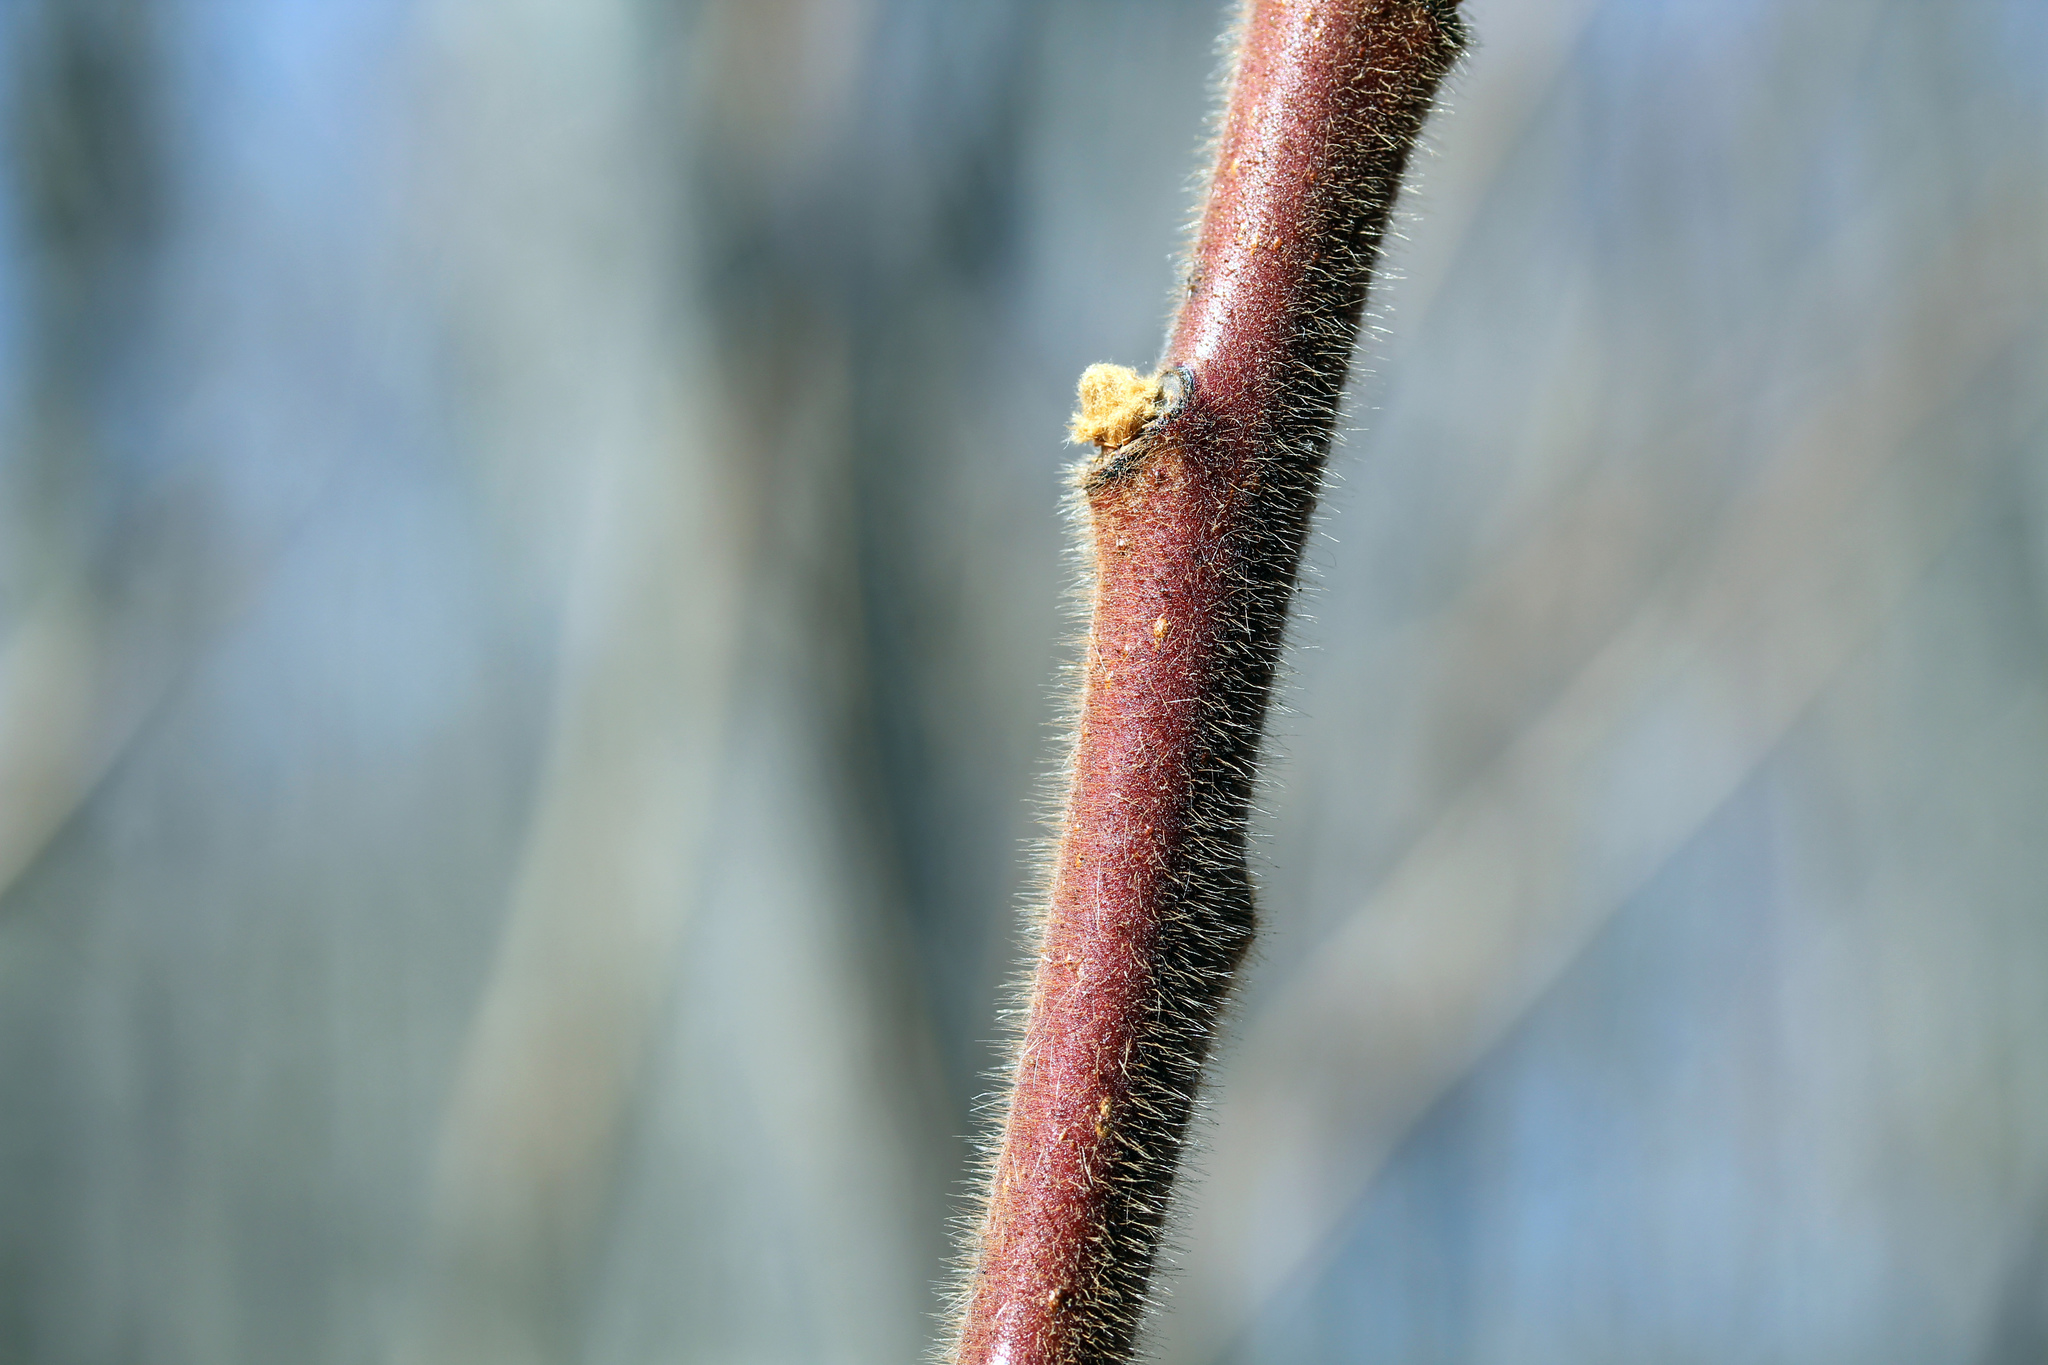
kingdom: Plantae
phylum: Tracheophyta
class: Magnoliopsida
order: Sapindales
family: Anacardiaceae
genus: Rhus
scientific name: Rhus typhina
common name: Staghorn sumac
